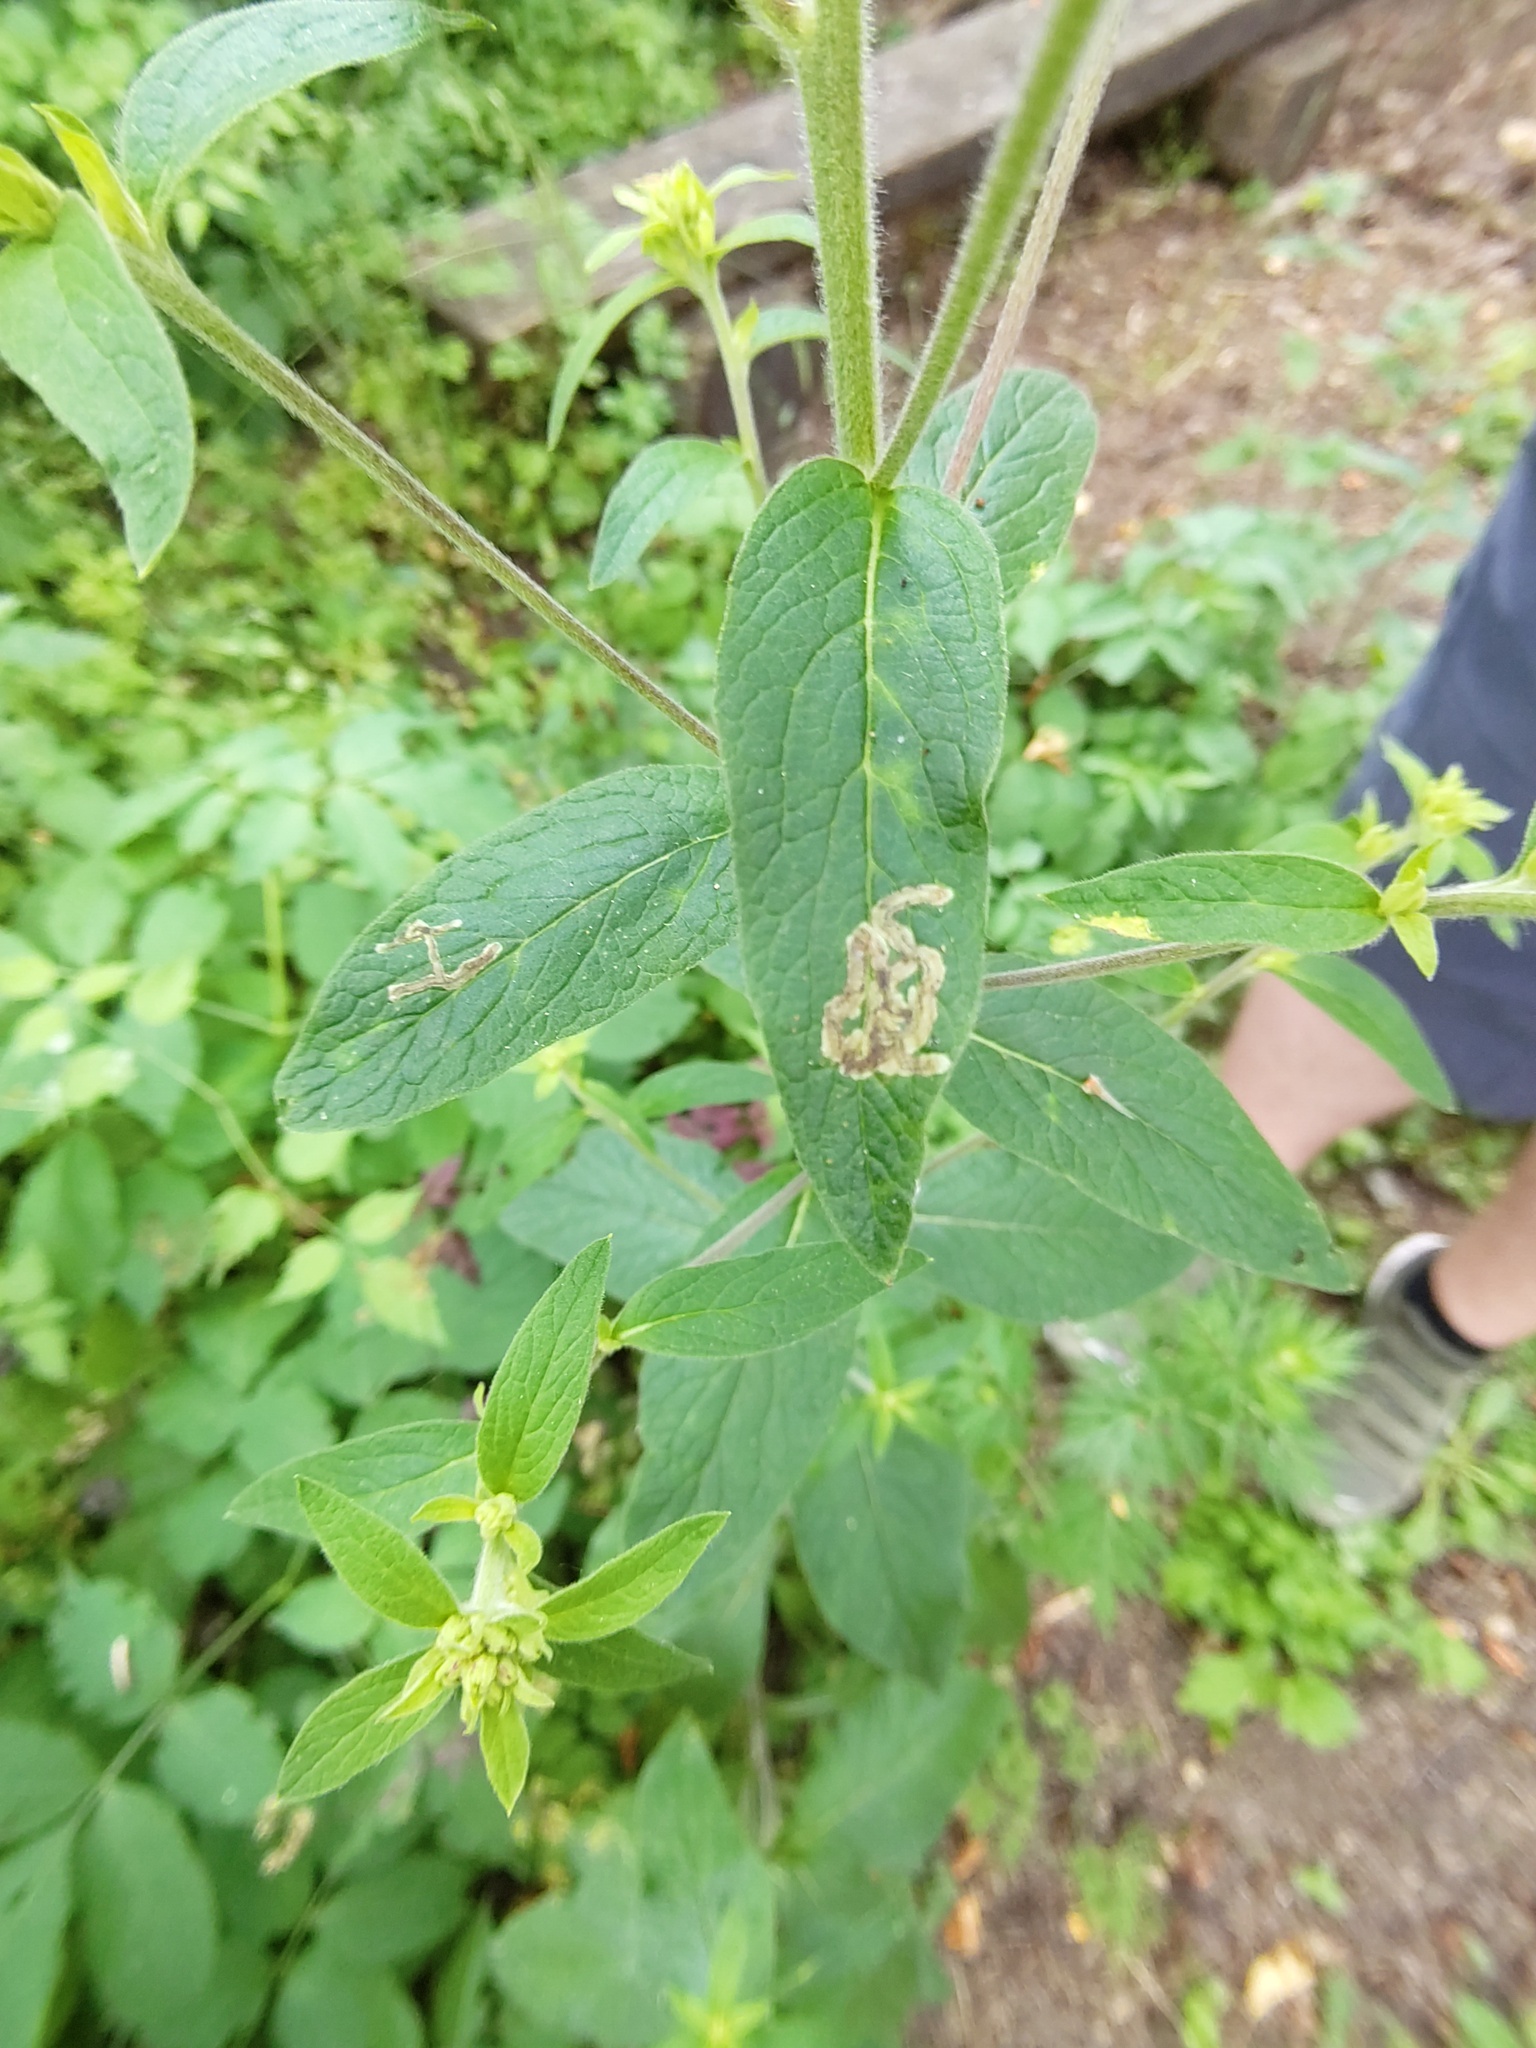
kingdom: Plantae
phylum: Tracheophyta
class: Magnoliopsida
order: Asterales
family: Asteraceae
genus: Pentanema
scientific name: Pentanema squarrosum
